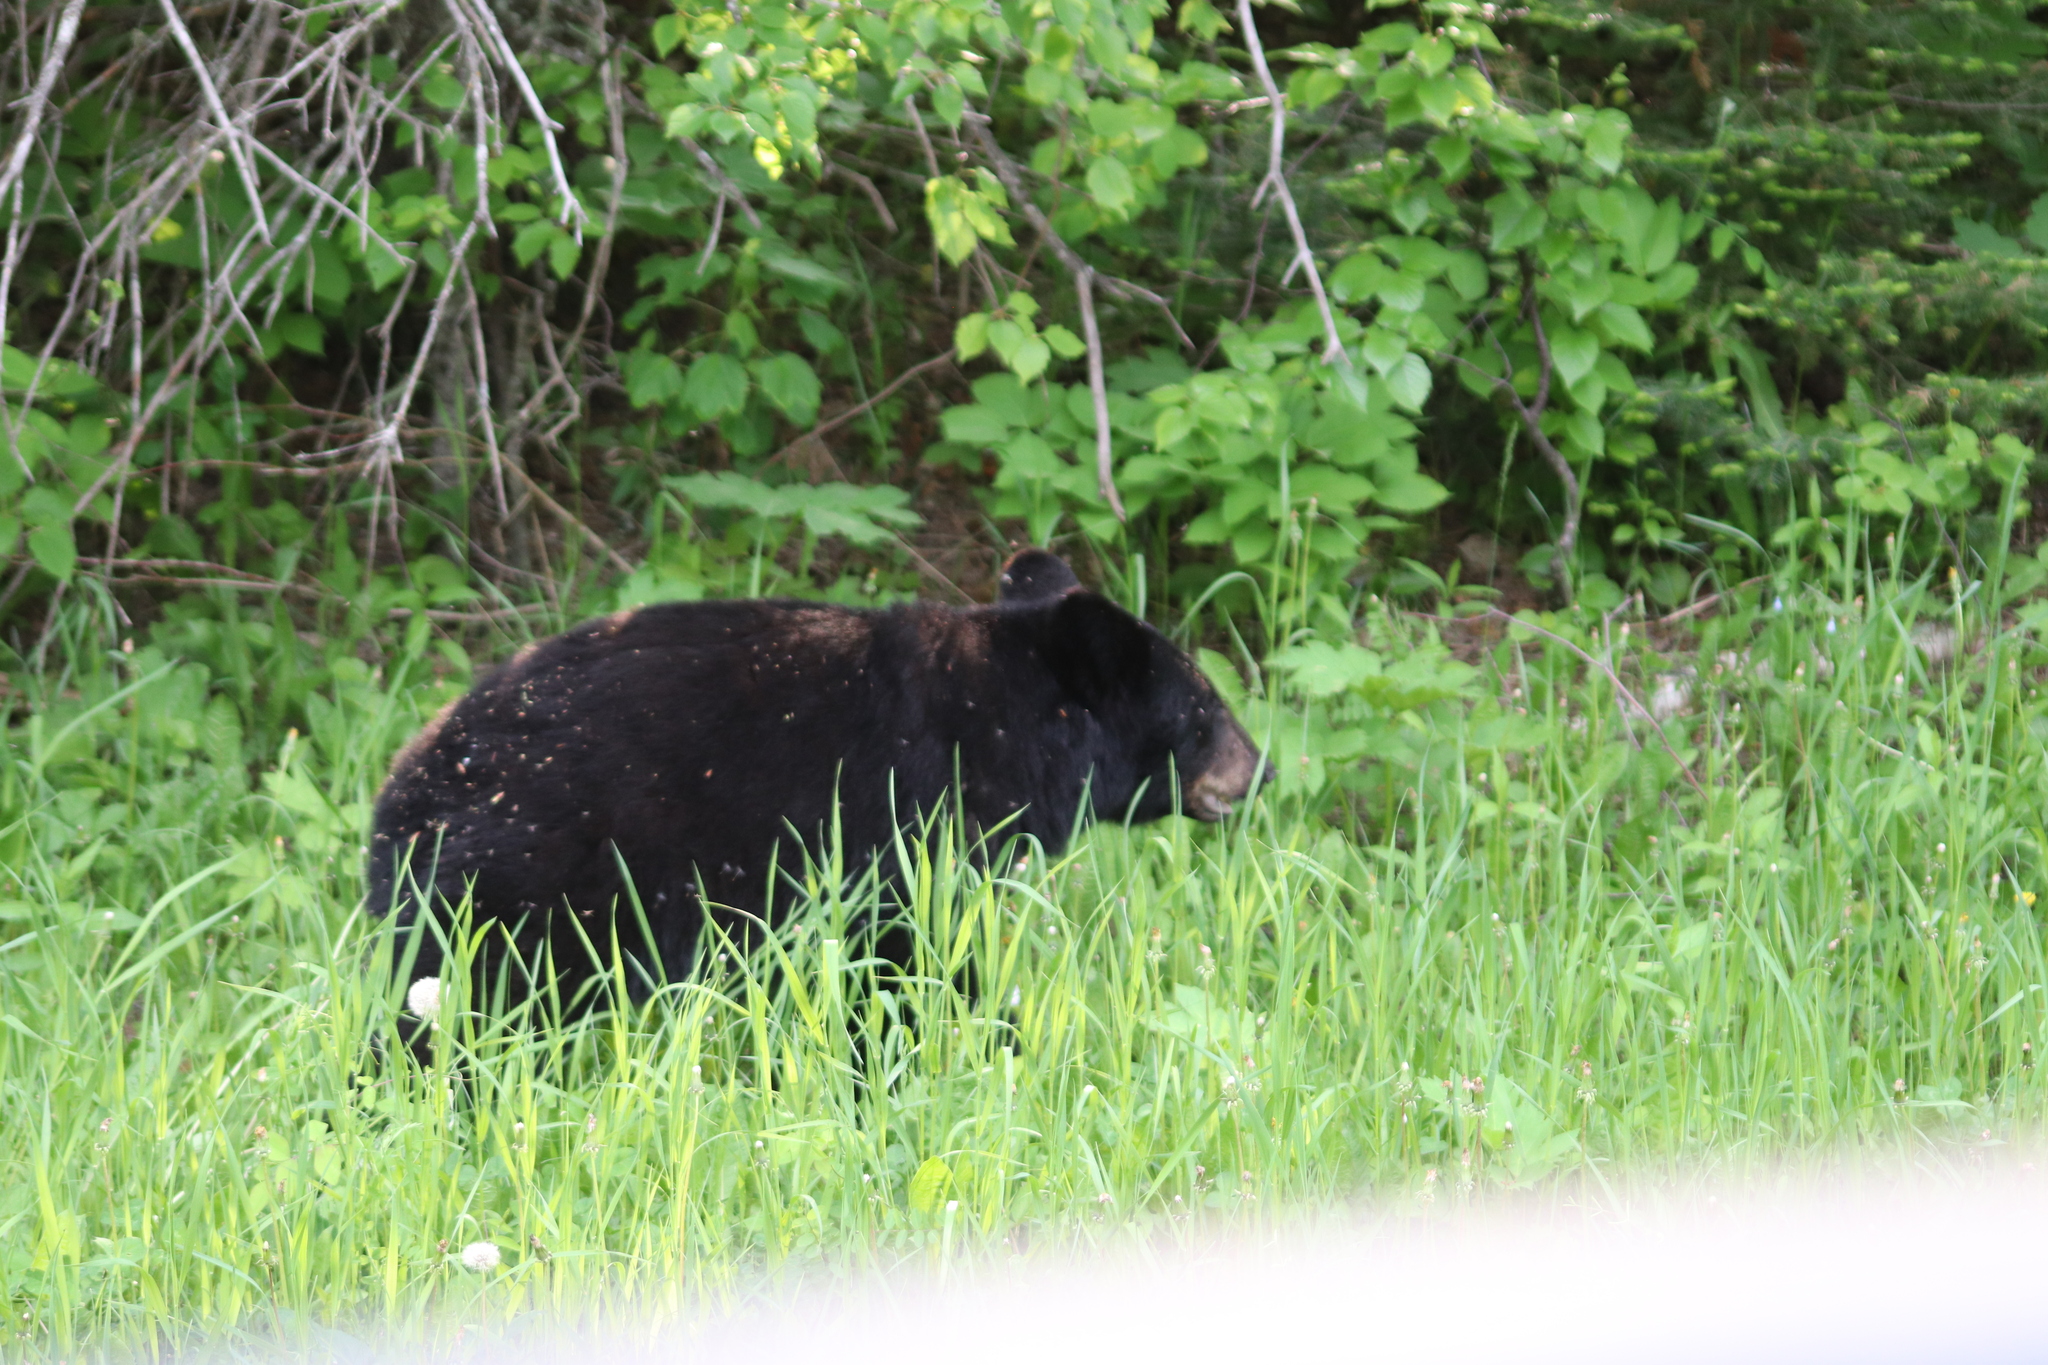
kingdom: Animalia
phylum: Chordata
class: Mammalia
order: Carnivora
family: Ursidae
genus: Ursus
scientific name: Ursus americanus
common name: American black bear
